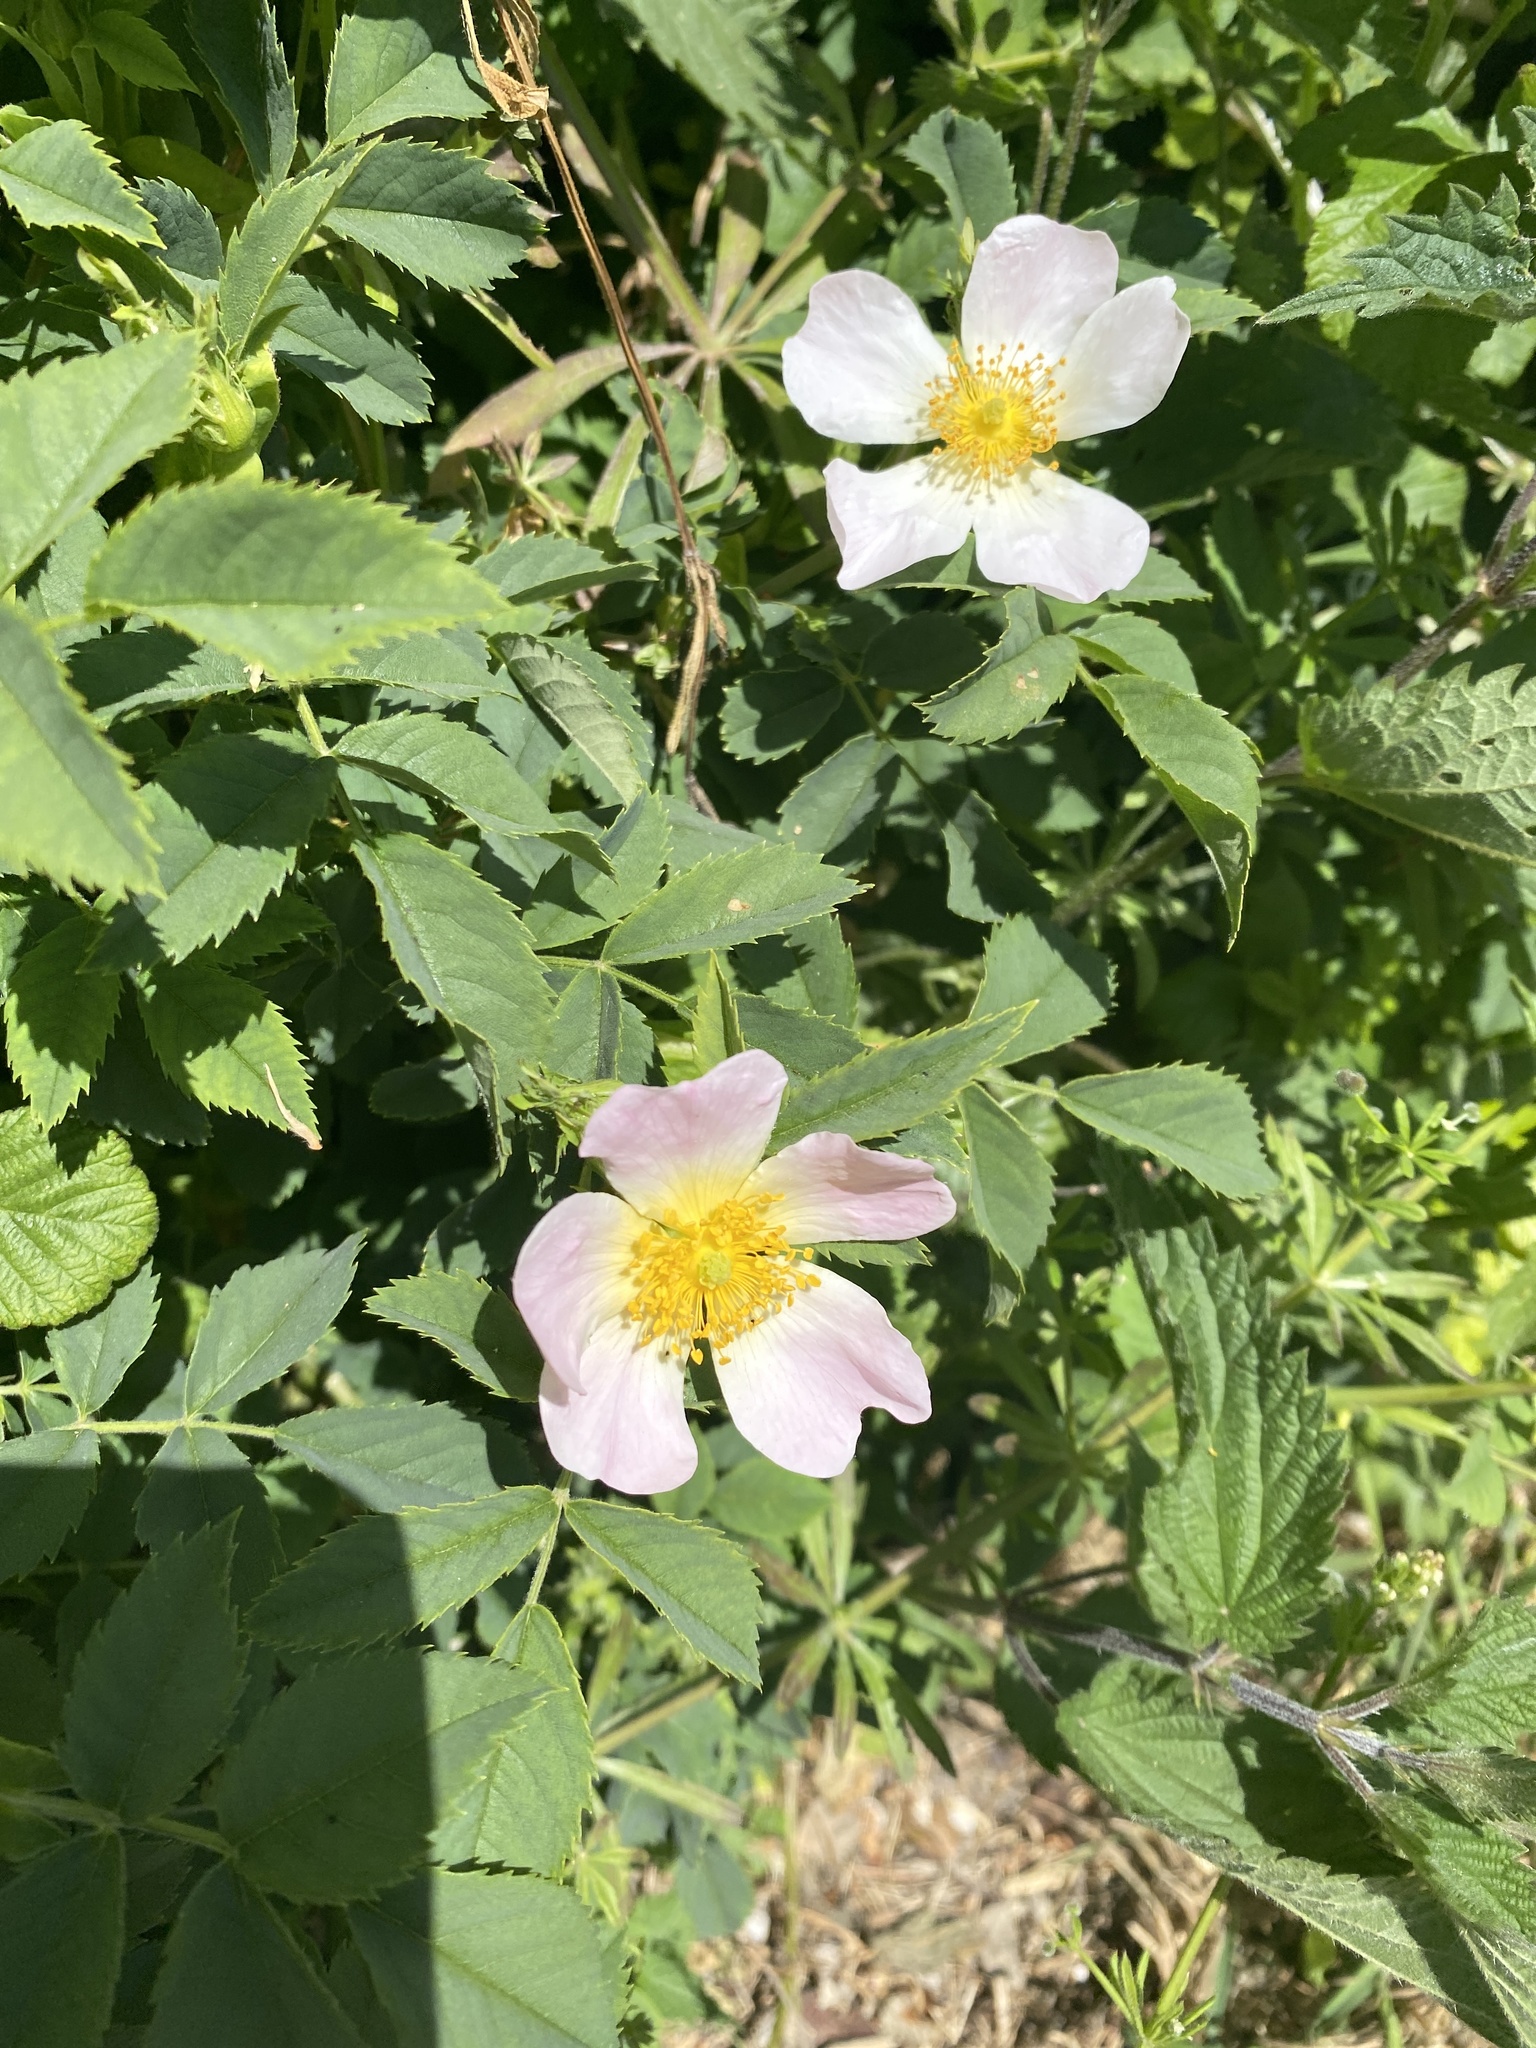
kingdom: Plantae
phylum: Tracheophyta
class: Magnoliopsida
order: Rosales
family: Rosaceae
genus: Rosa
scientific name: Rosa canina
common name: Dog rose
